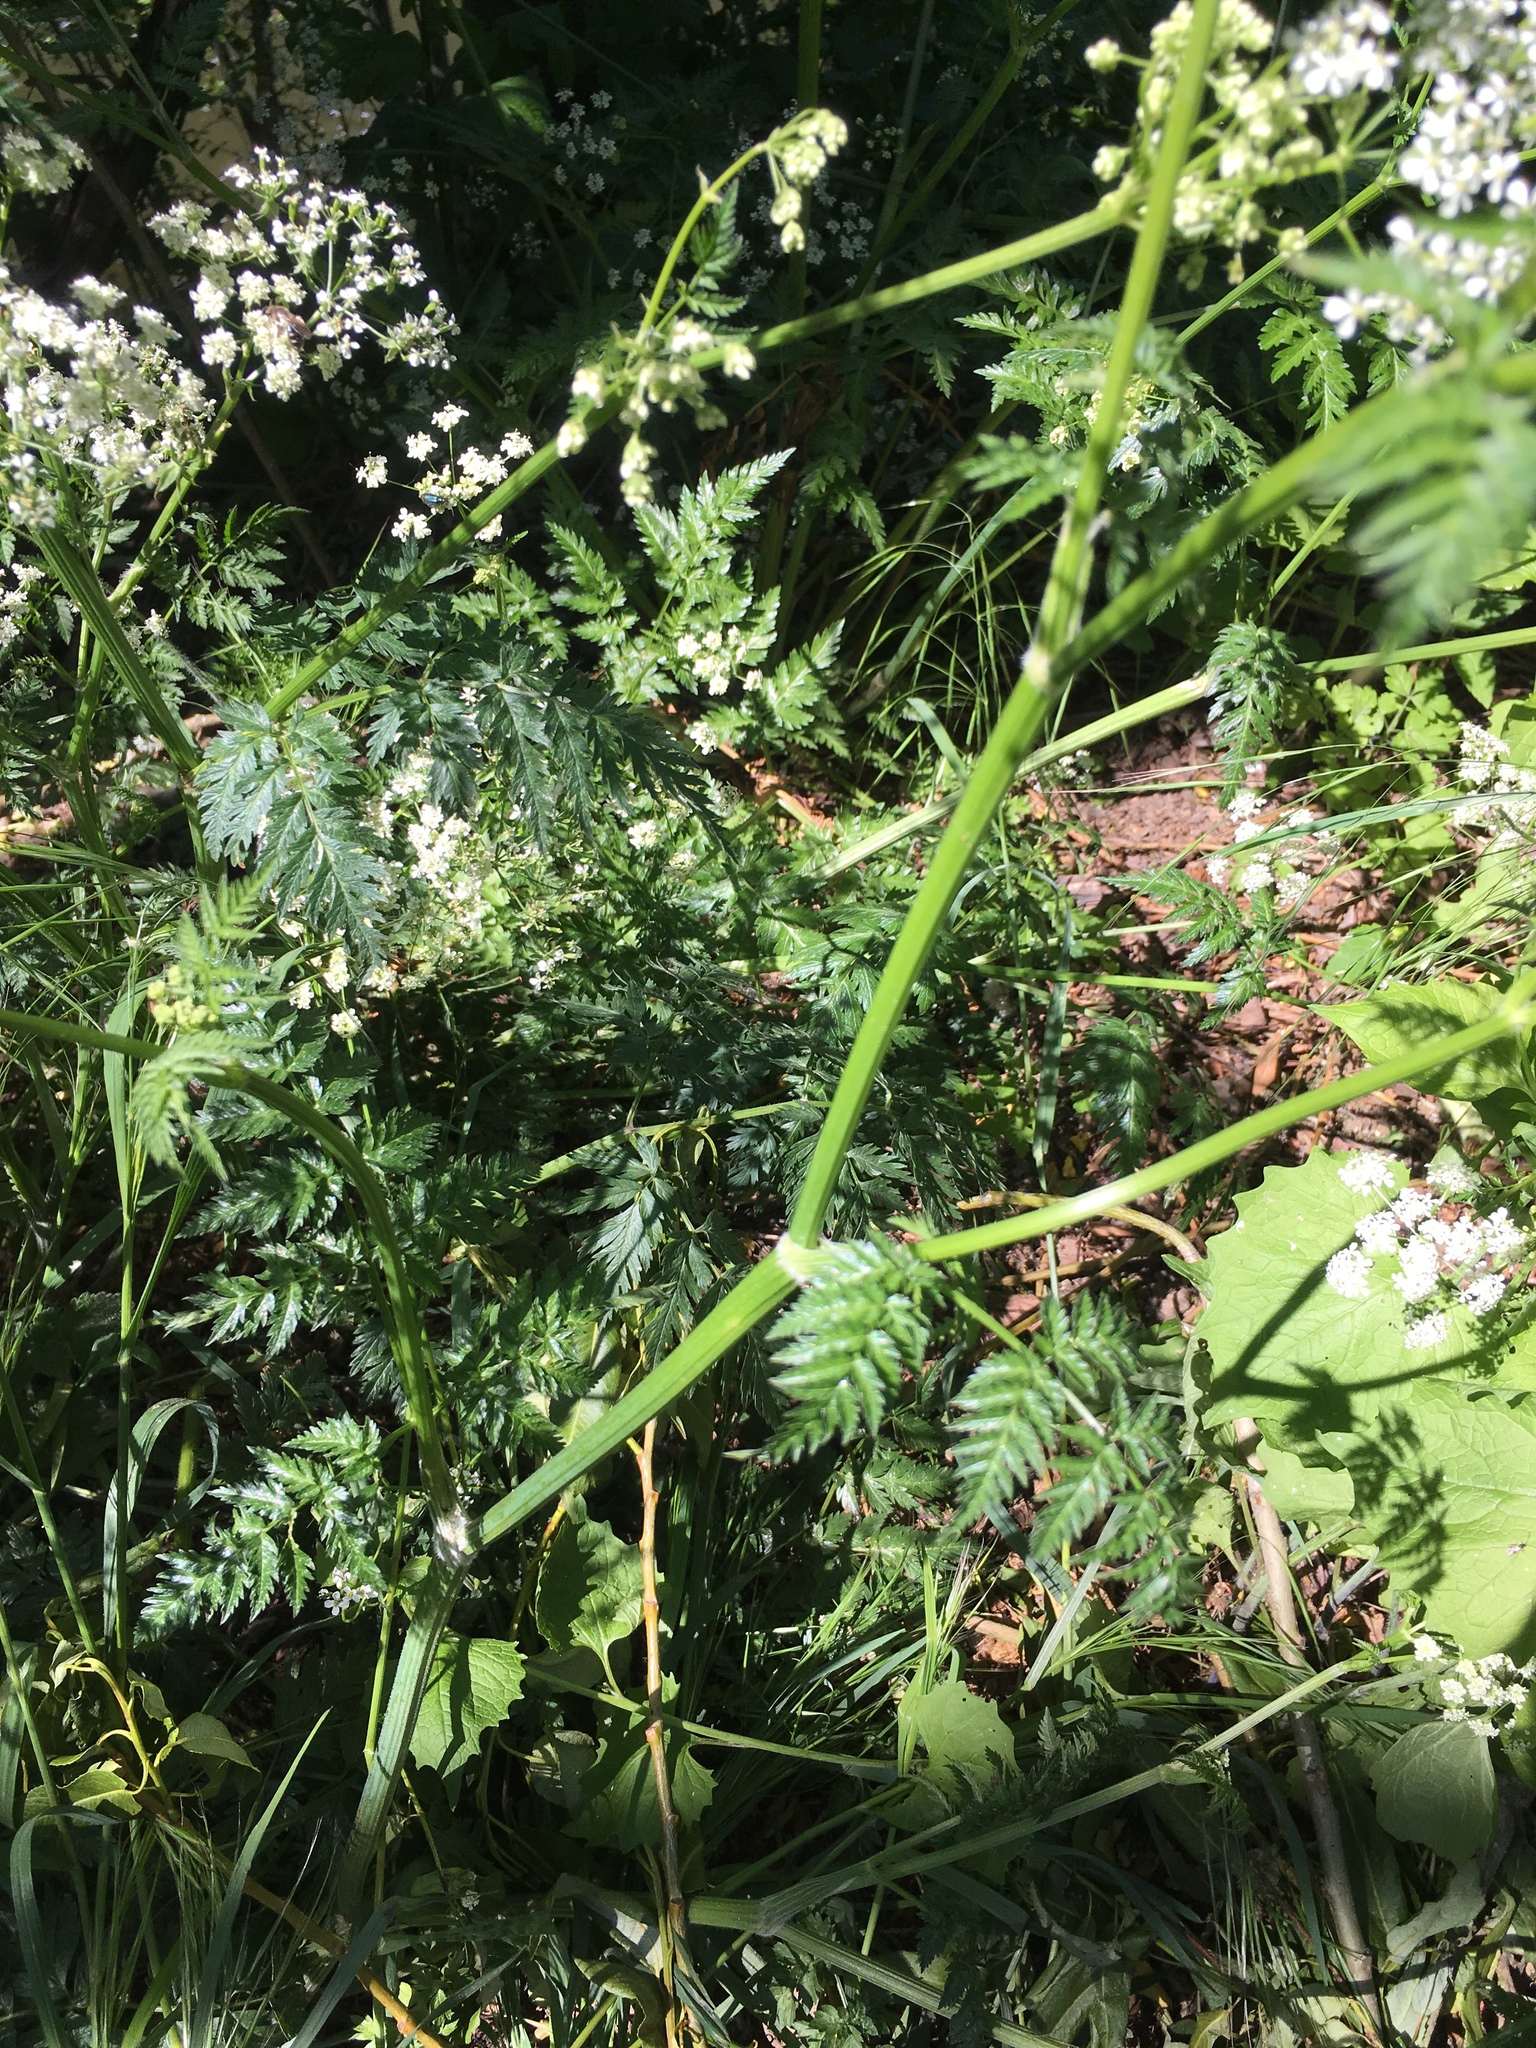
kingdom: Plantae
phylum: Tracheophyta
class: Magnoliopsida
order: Apiales
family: Apiaceae
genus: Anthriscus
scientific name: Anthriscus sylvestris
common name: Cow parsley
